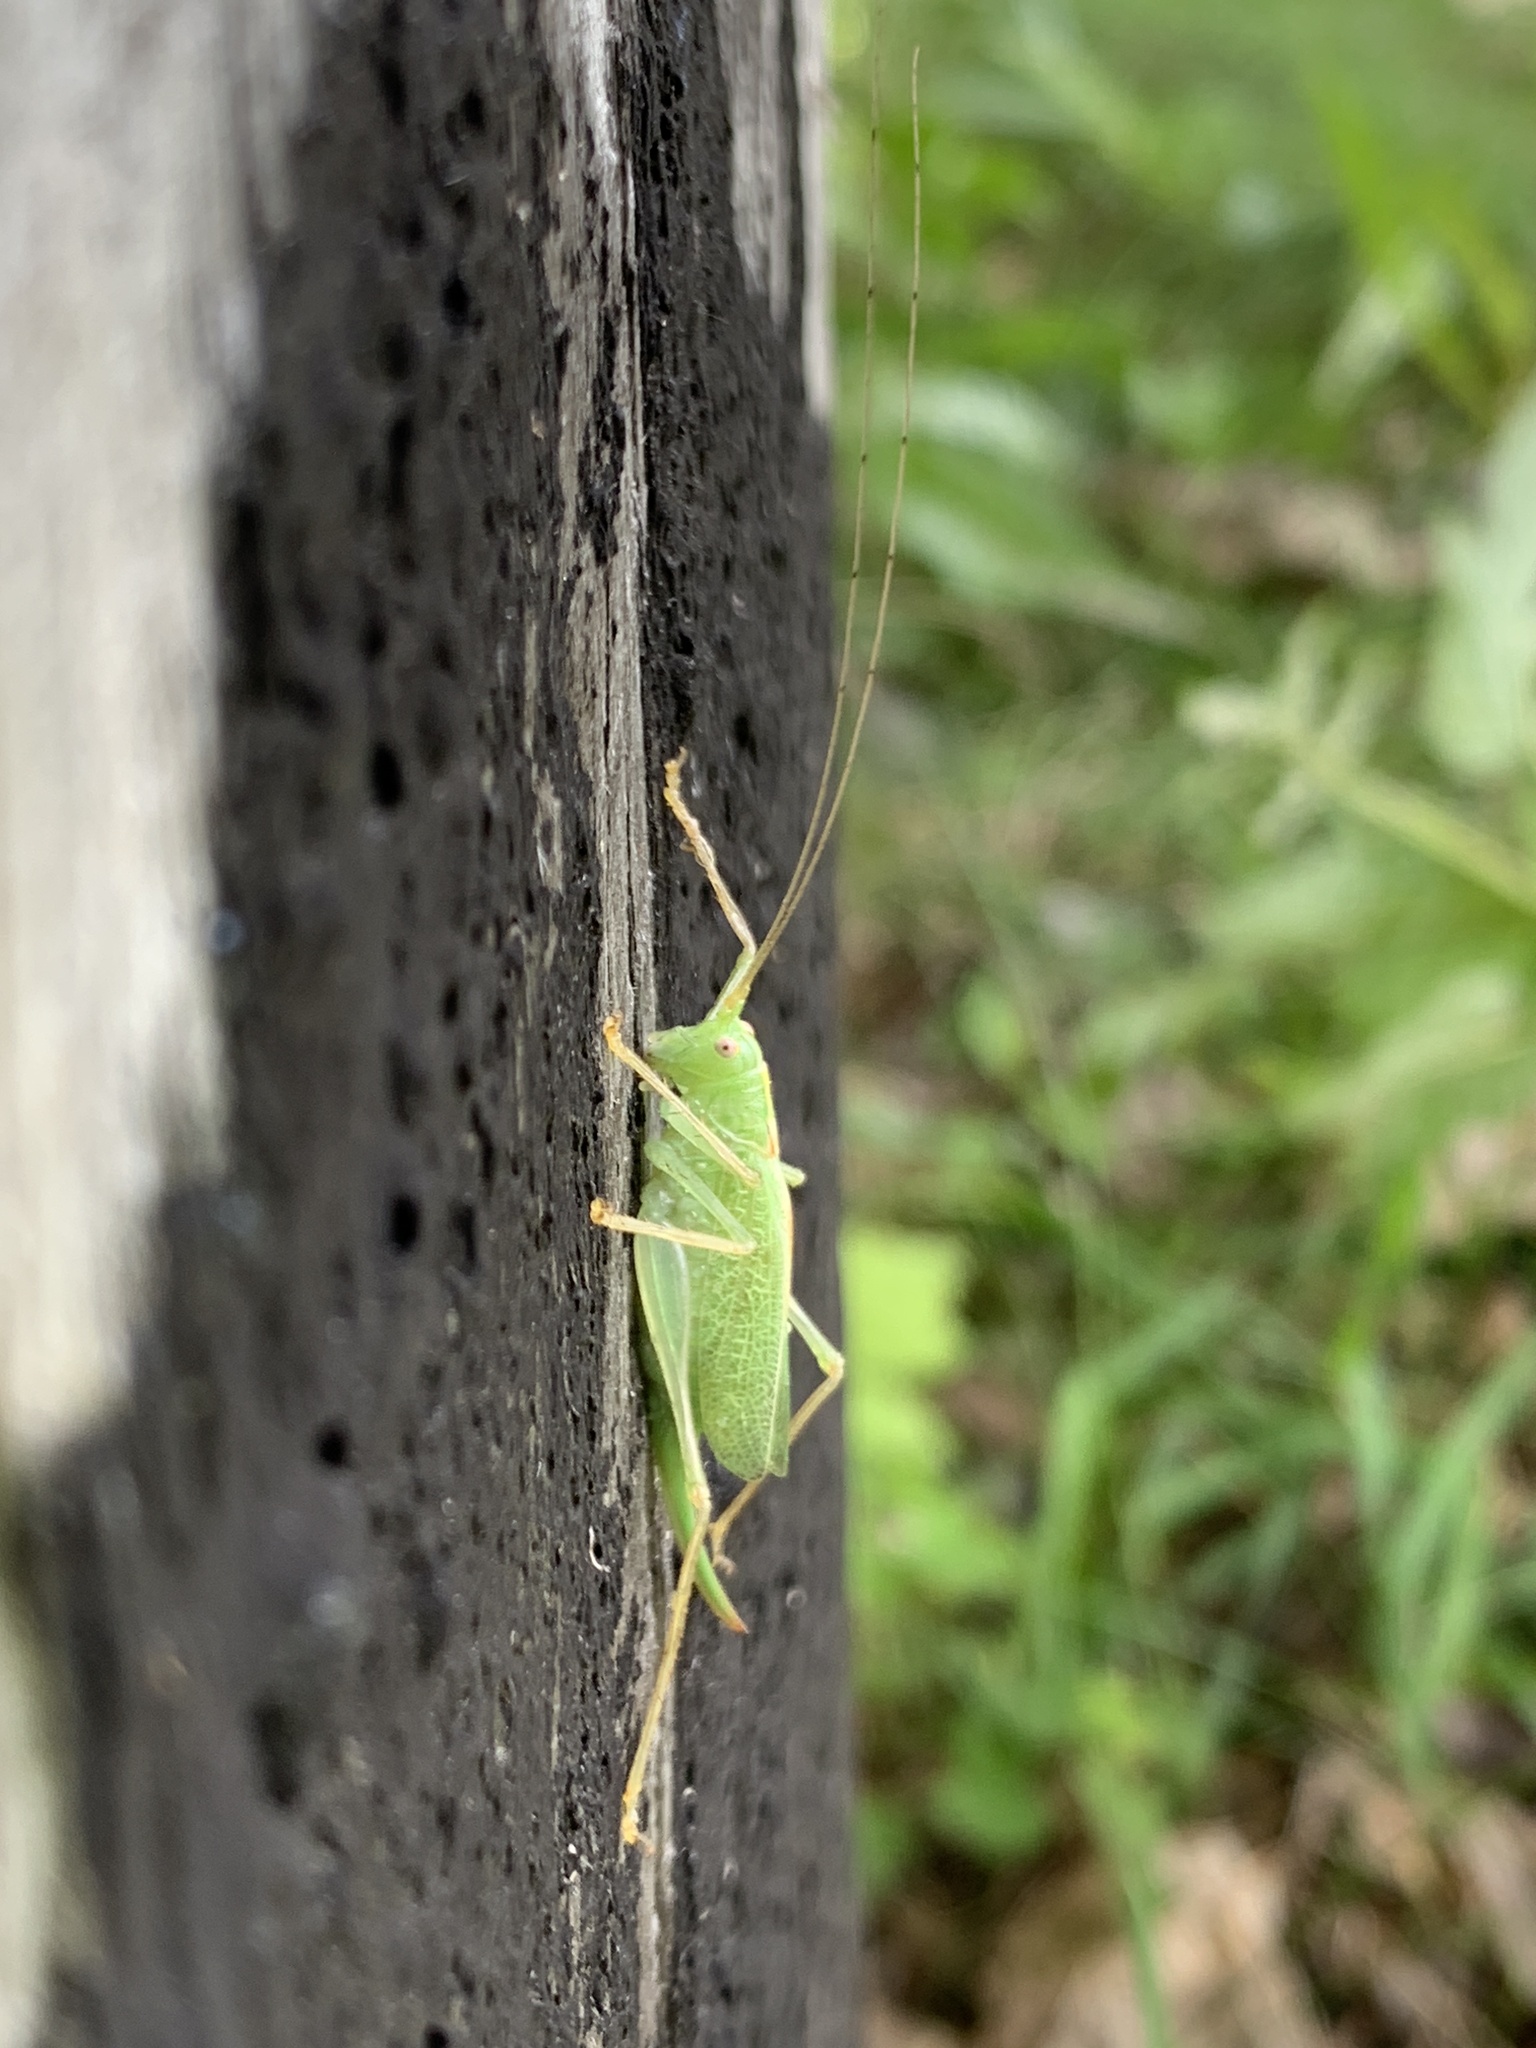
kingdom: Animalia
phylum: Arthropoda
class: Insecta
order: Orthoptera
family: Tettigoniidae
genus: Meconema
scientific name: Meconema thalassinum
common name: Oak bush-cricket
